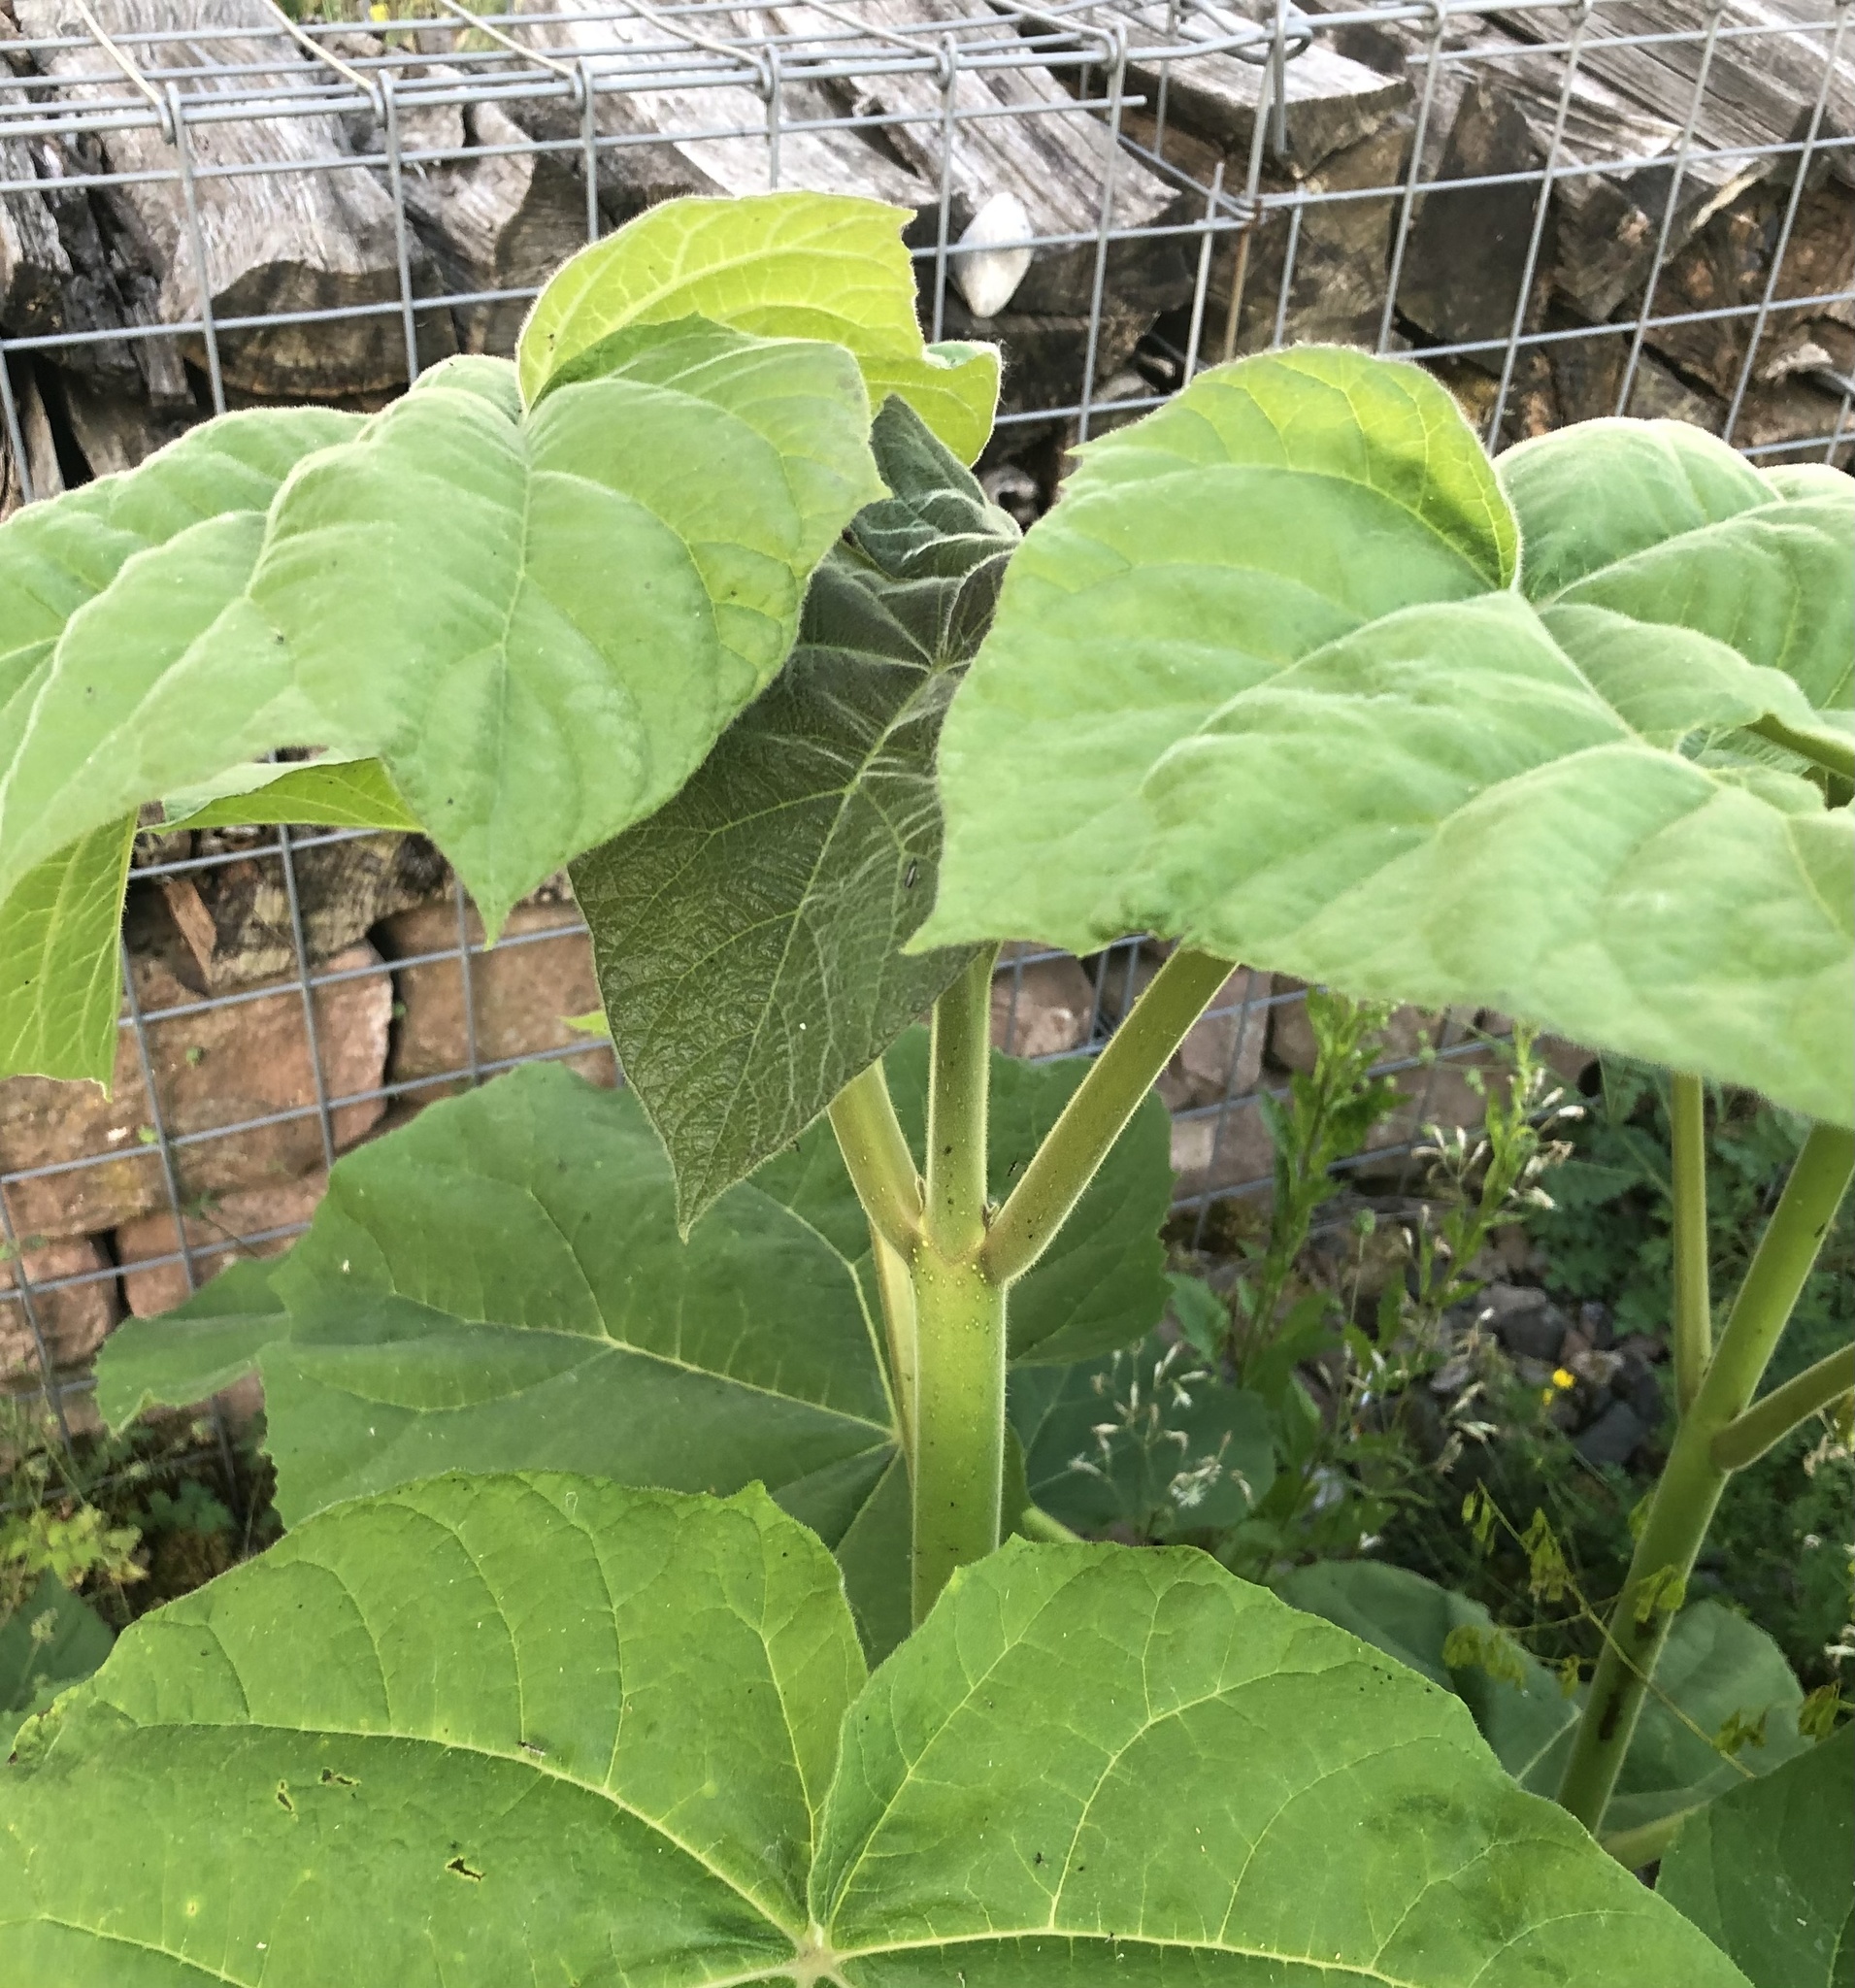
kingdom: Plantae
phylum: Tracheophyta
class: Magnoliopsida
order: Lamiales
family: Paulowniaceae
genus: Paulownia
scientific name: Paulownia tomentosa
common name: Foxglove-tree
